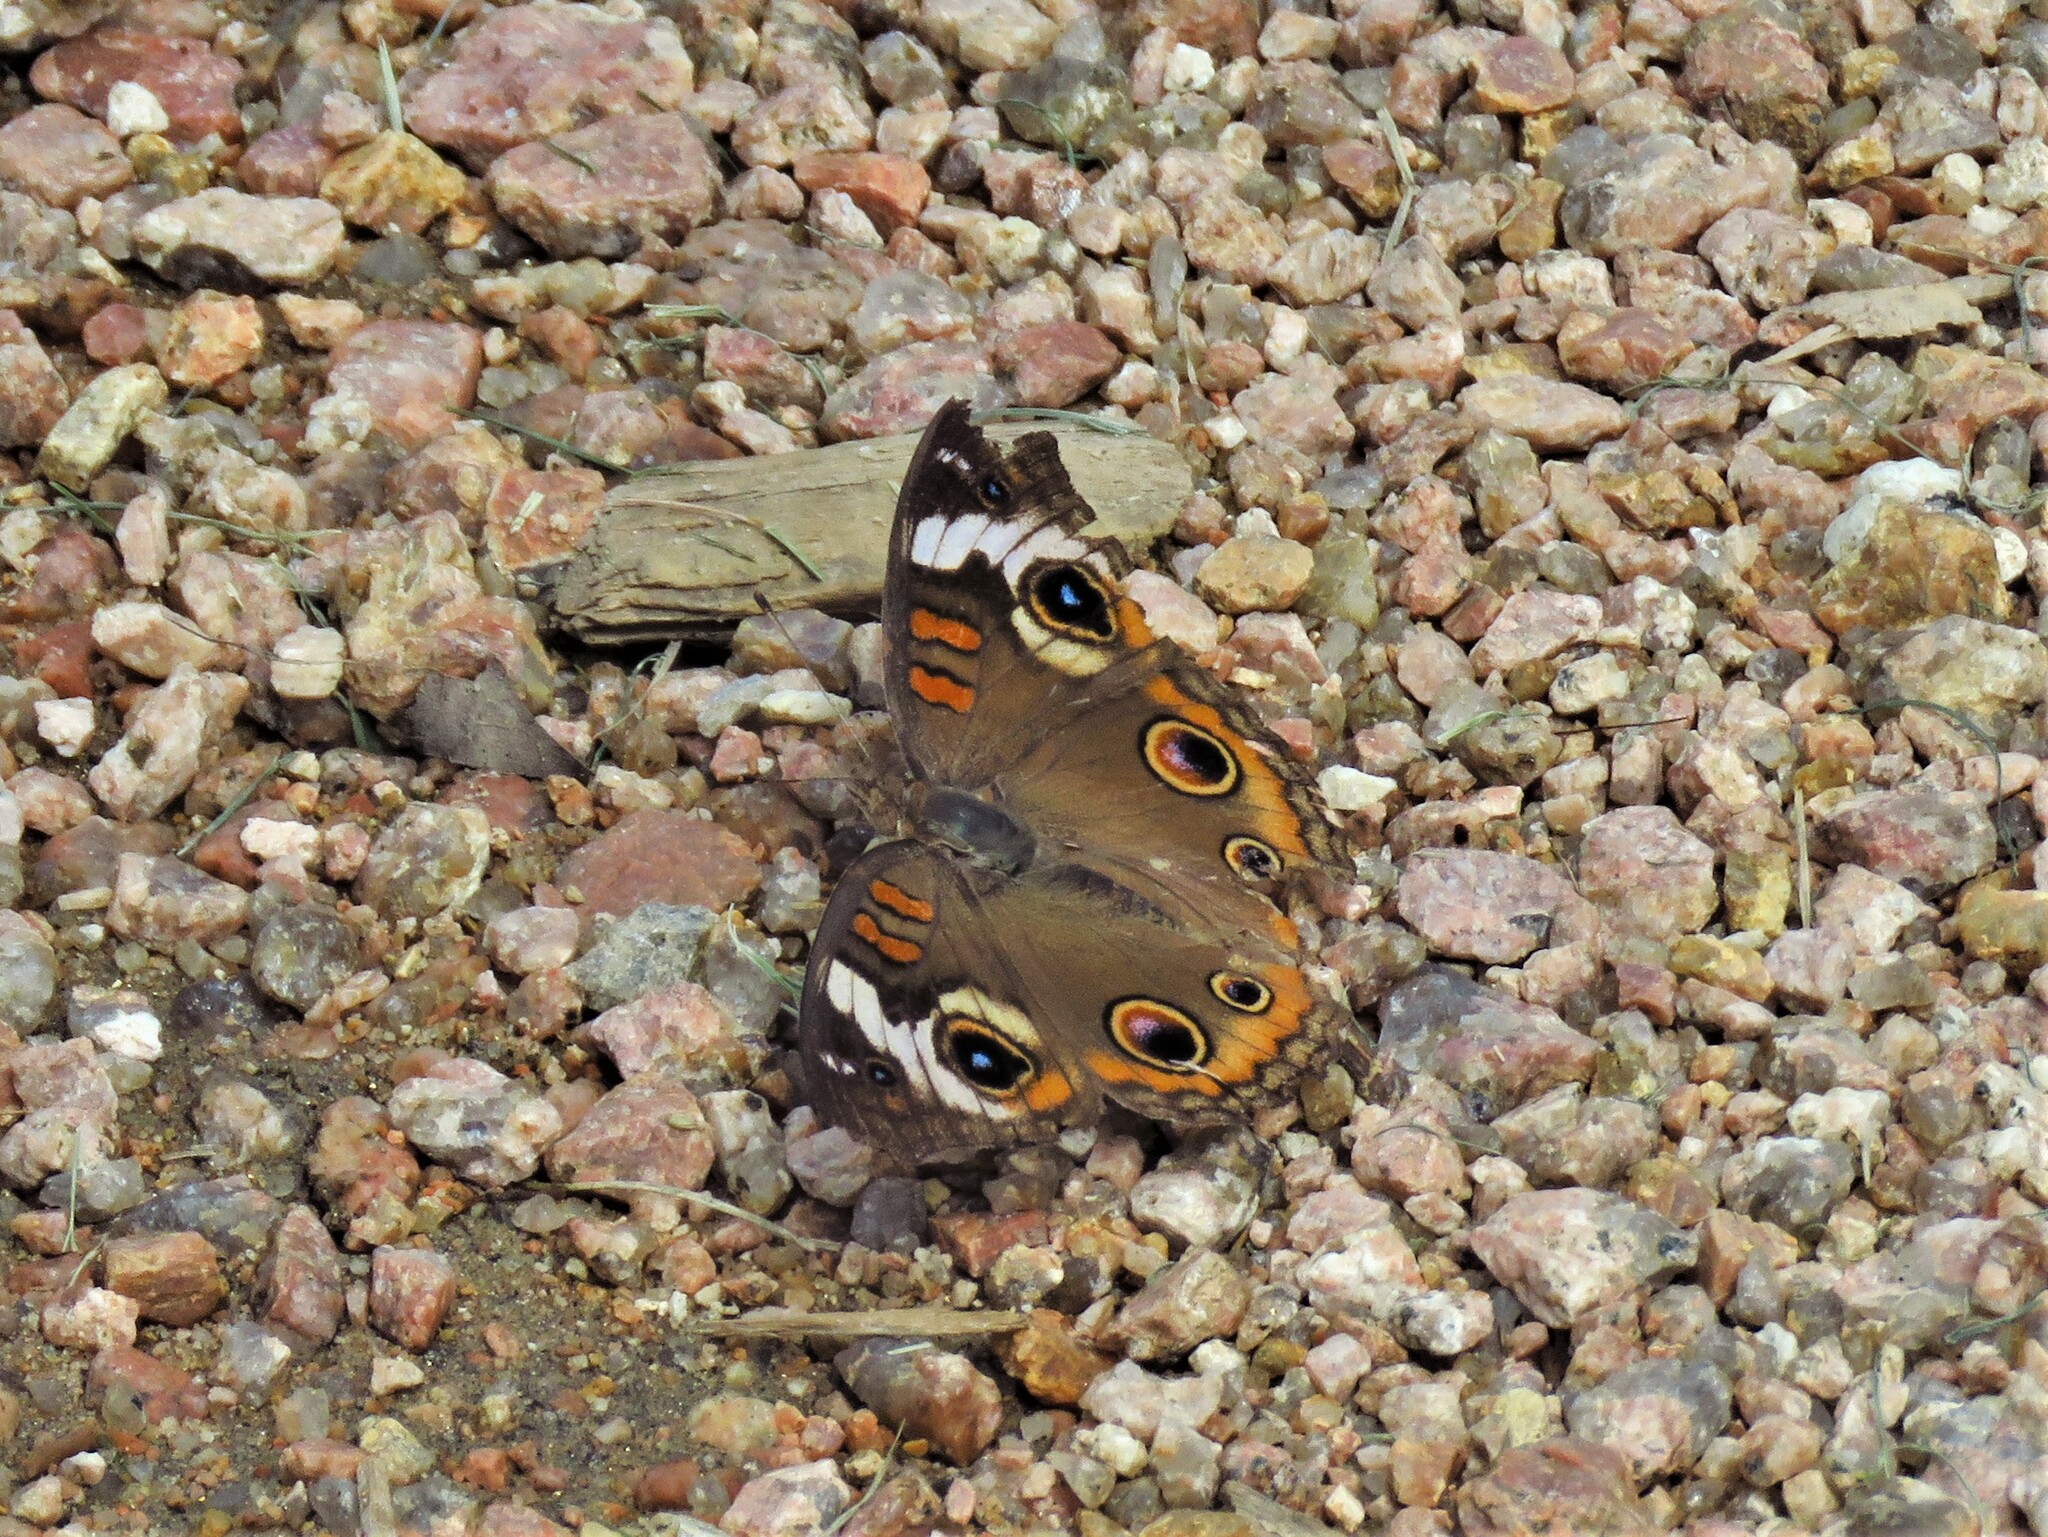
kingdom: Animalia
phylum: Arthropoda
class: Insecta
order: Lepidoptera
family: Nymphalidae
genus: Junonia
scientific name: Junonia coenia
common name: Common buckeye
